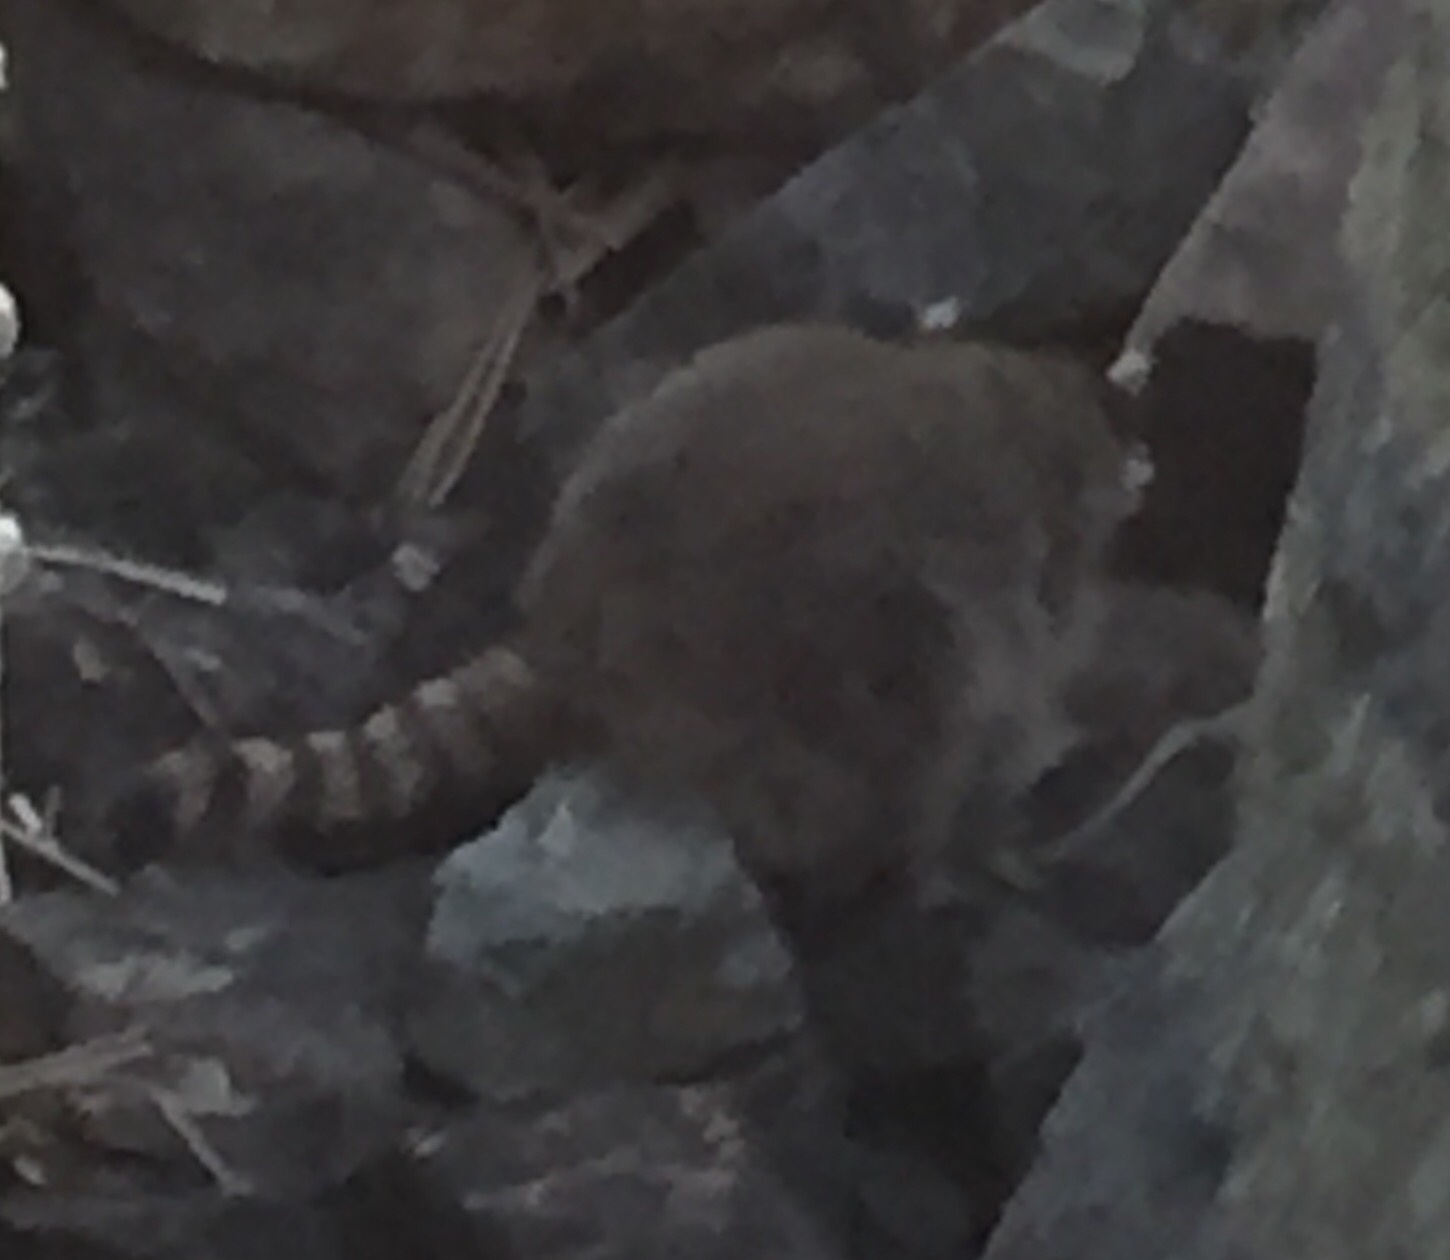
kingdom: Animalia
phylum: Chordata
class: Mammalia
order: Carnivora
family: Procyonidae
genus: Procyon
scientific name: Procyon lotor
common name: Raccoon
